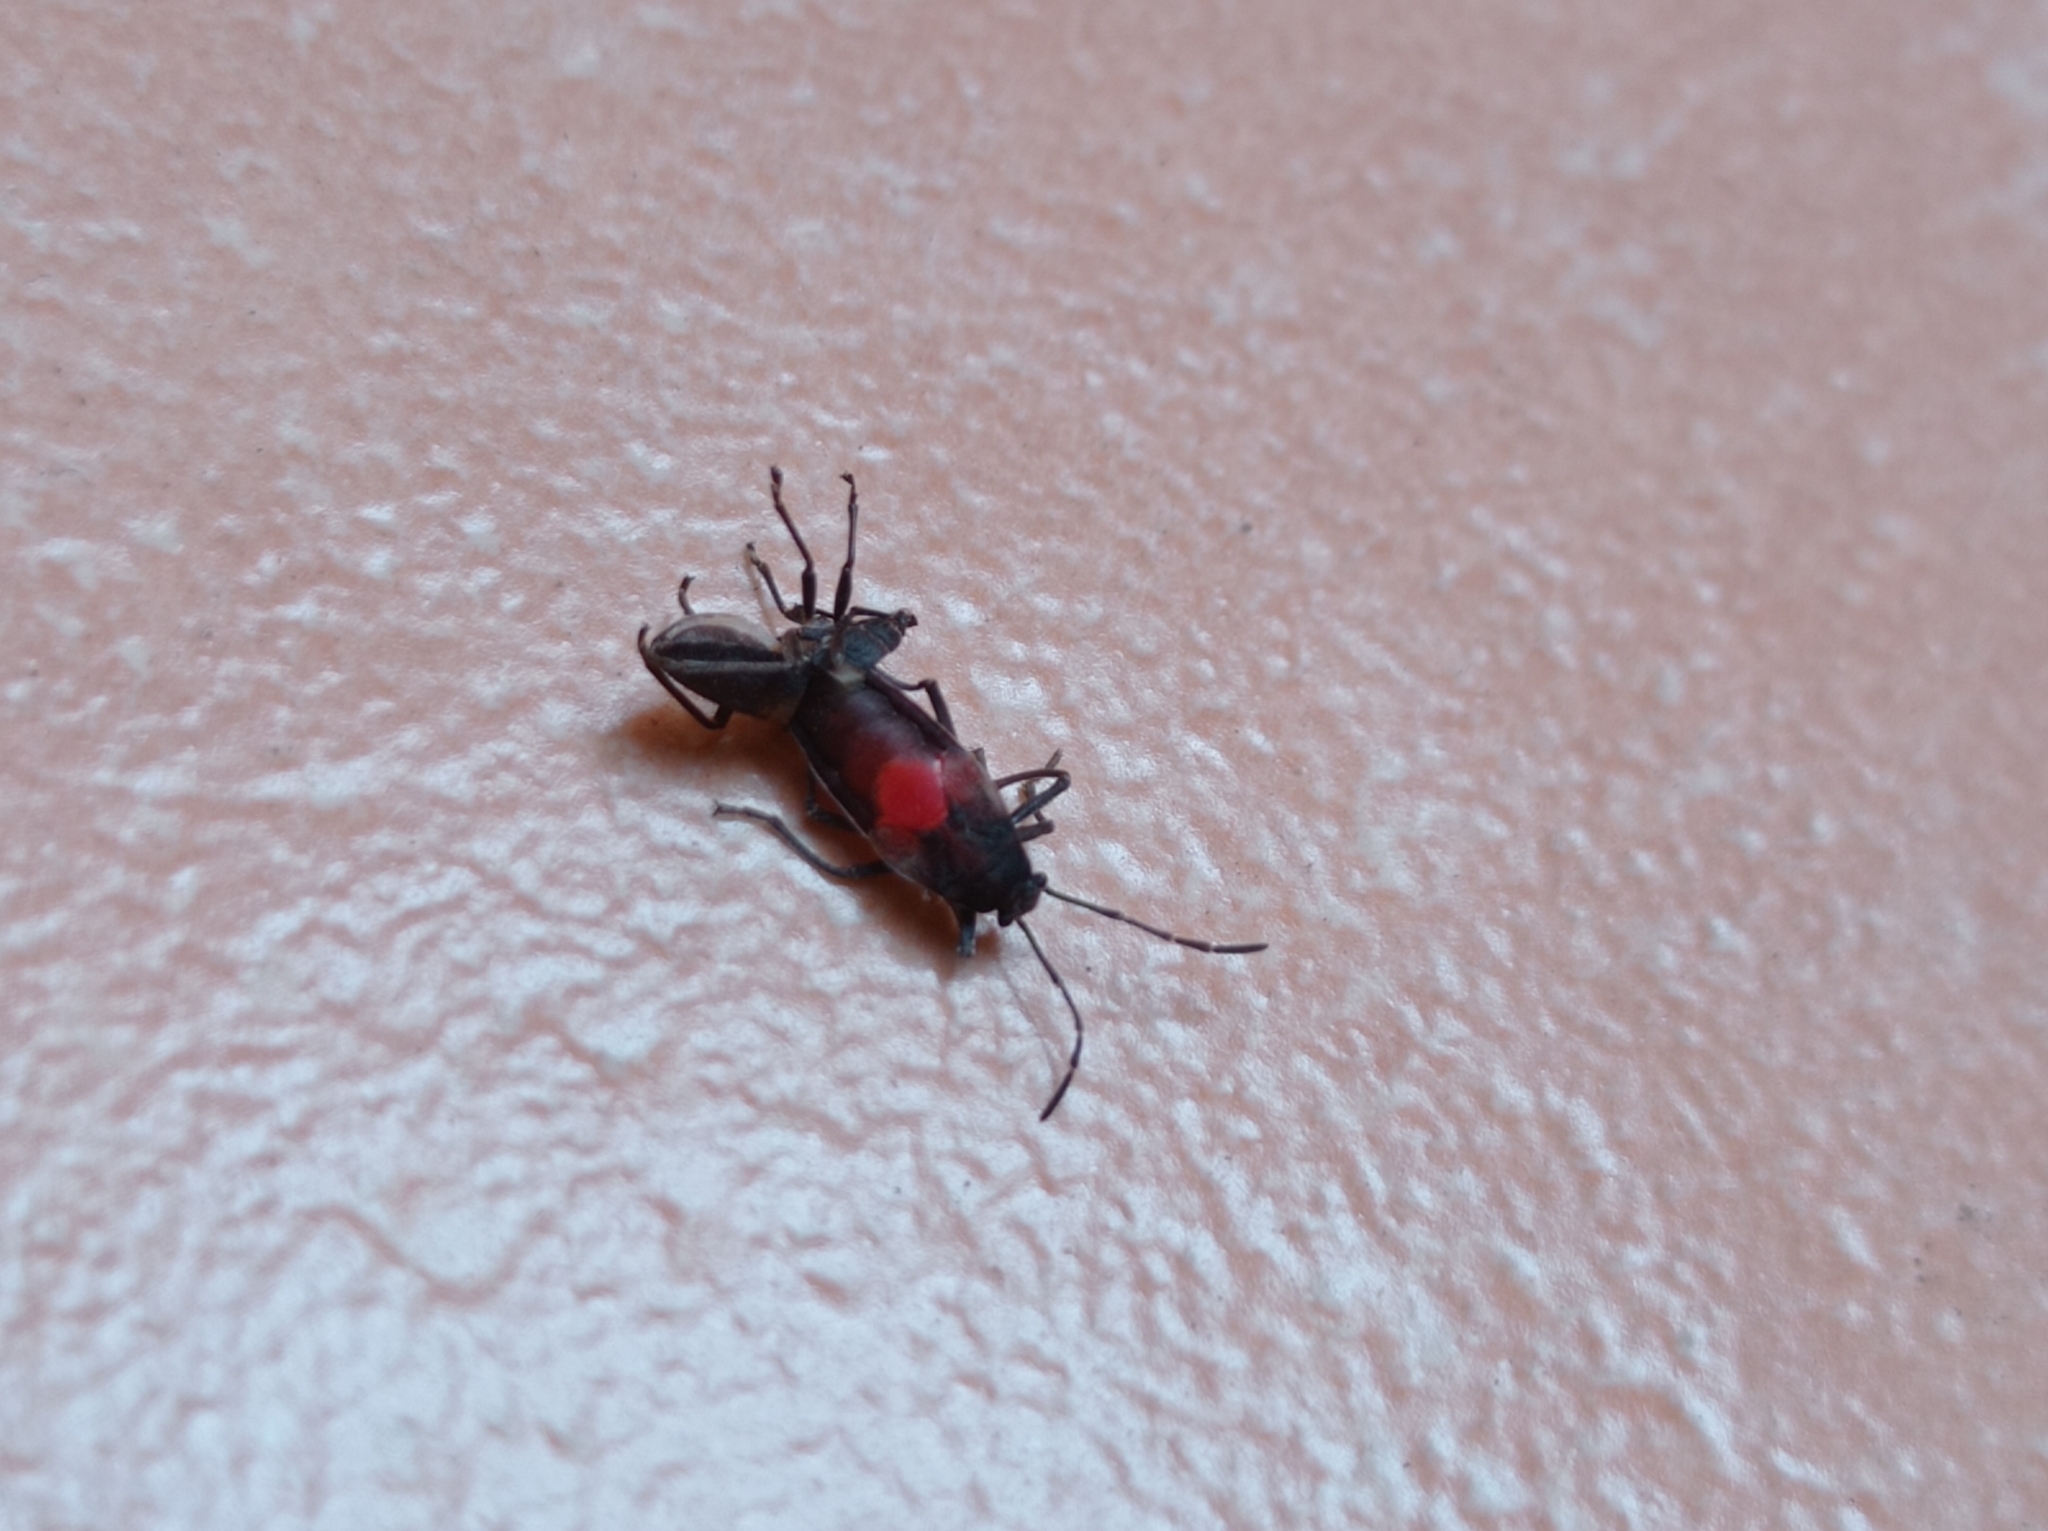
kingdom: Animalia
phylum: Arthropoda
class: Insecta
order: Hemiptera
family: Largidae
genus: Stenomacra
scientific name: Stenomacra marginella
